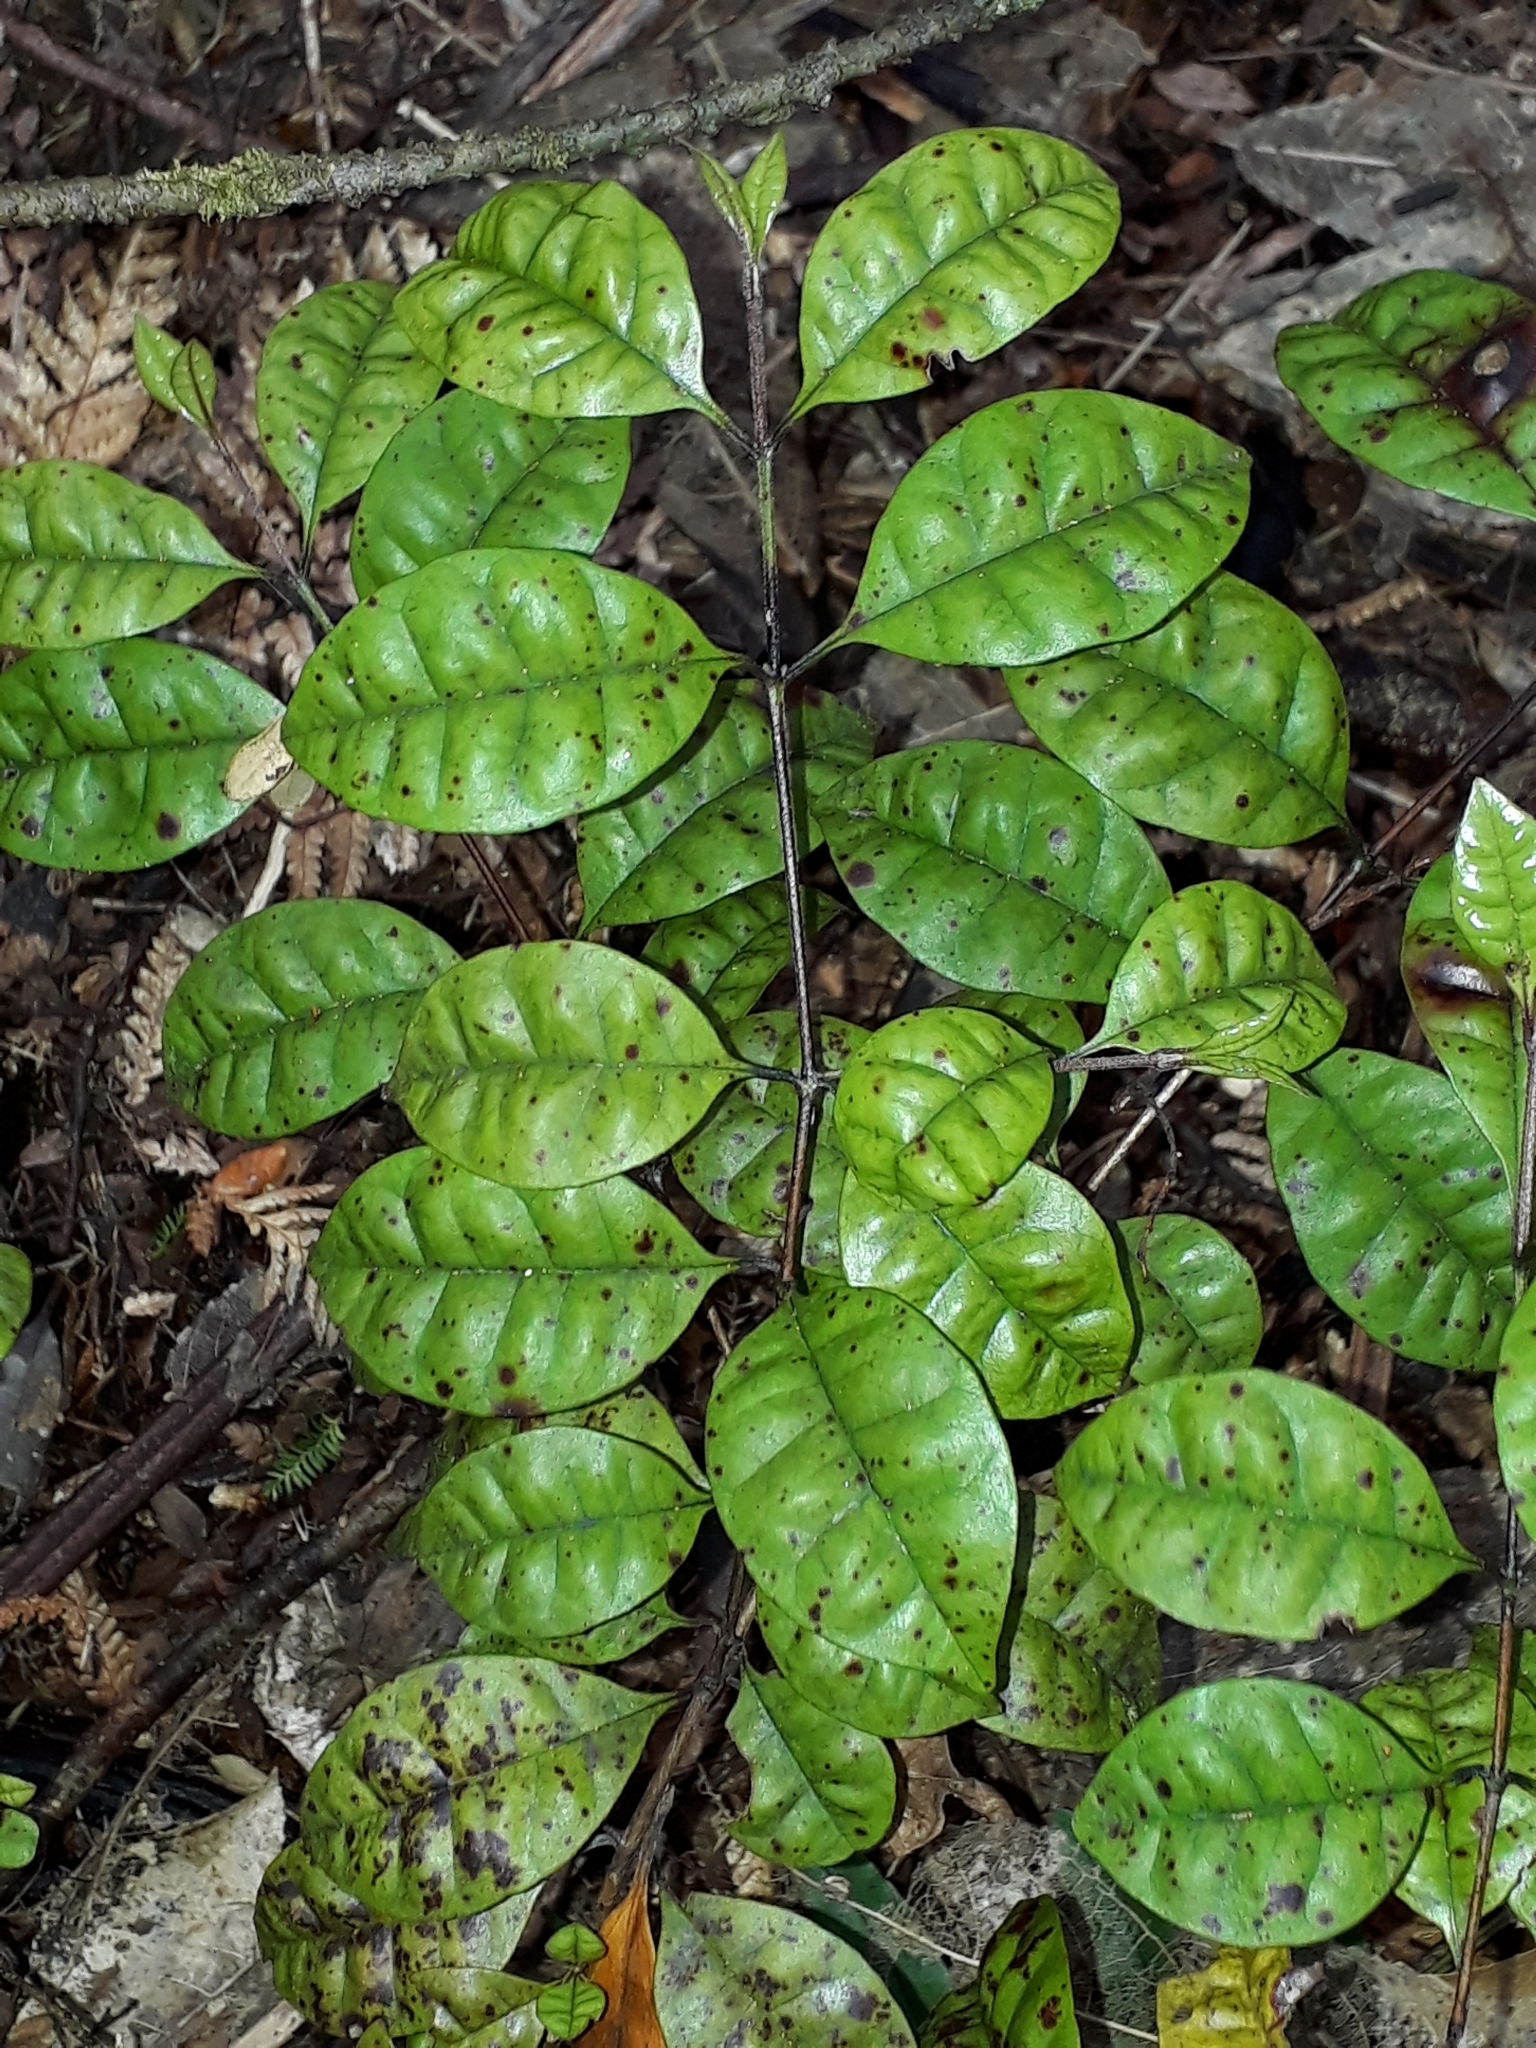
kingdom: Plantae
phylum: Tracheophyta
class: Magnoliopsida
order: Myrtales
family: Myrtaceae
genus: Lophomyrtus
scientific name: Lophomyrtus bullata
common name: Rama rama
